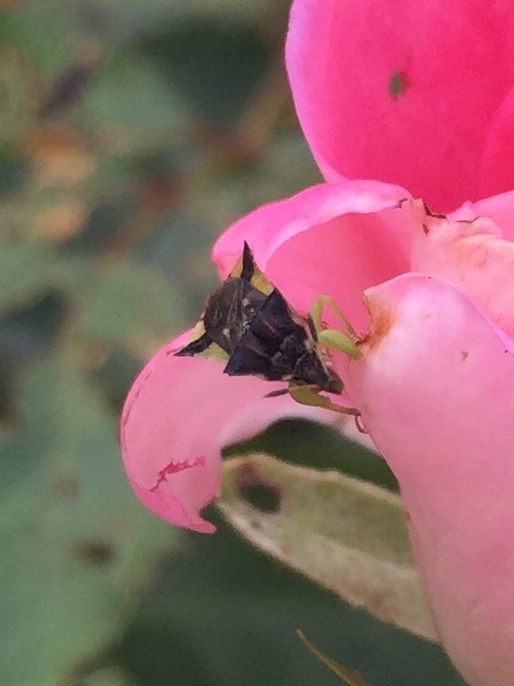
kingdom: Animalia
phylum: Arthropoda
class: Insecta
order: Hemiptera
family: Reduviidae
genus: Phymata
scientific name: Phymata pennsylvanica
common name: Pennsylvania ambush bug
